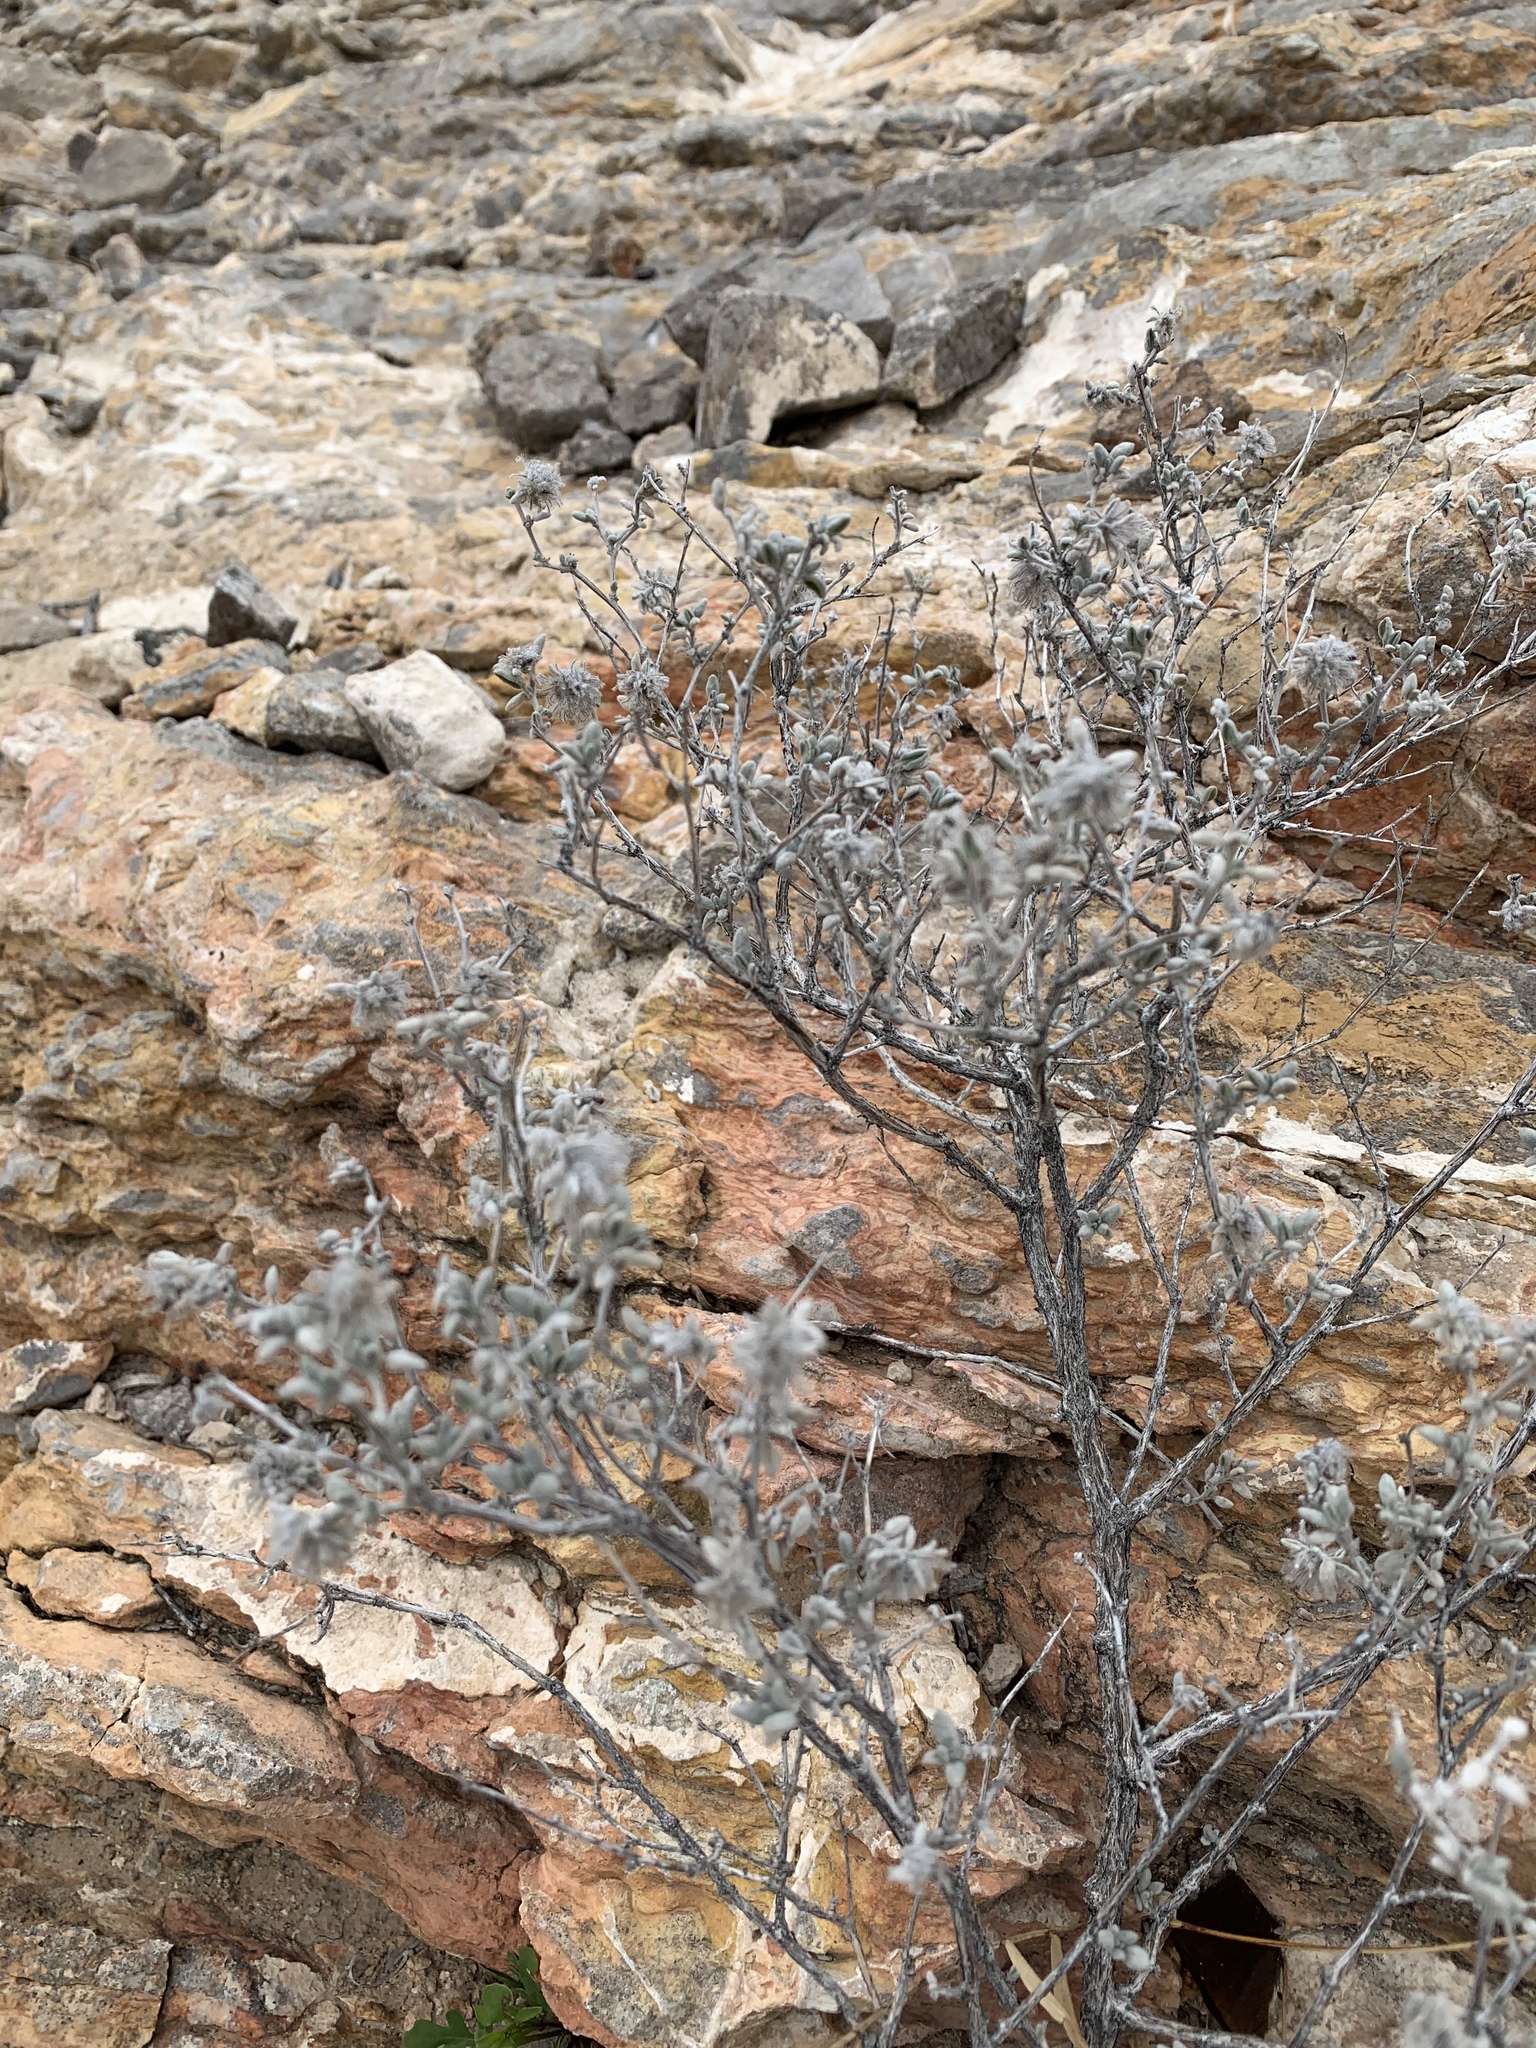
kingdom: Plantae
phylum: Tracheophyta
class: Magnoliopsida
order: Lamiales
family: Scrophulariaceae
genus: Leucophyllum
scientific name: Leucophyllum frutescens
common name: Texas silverleaf
